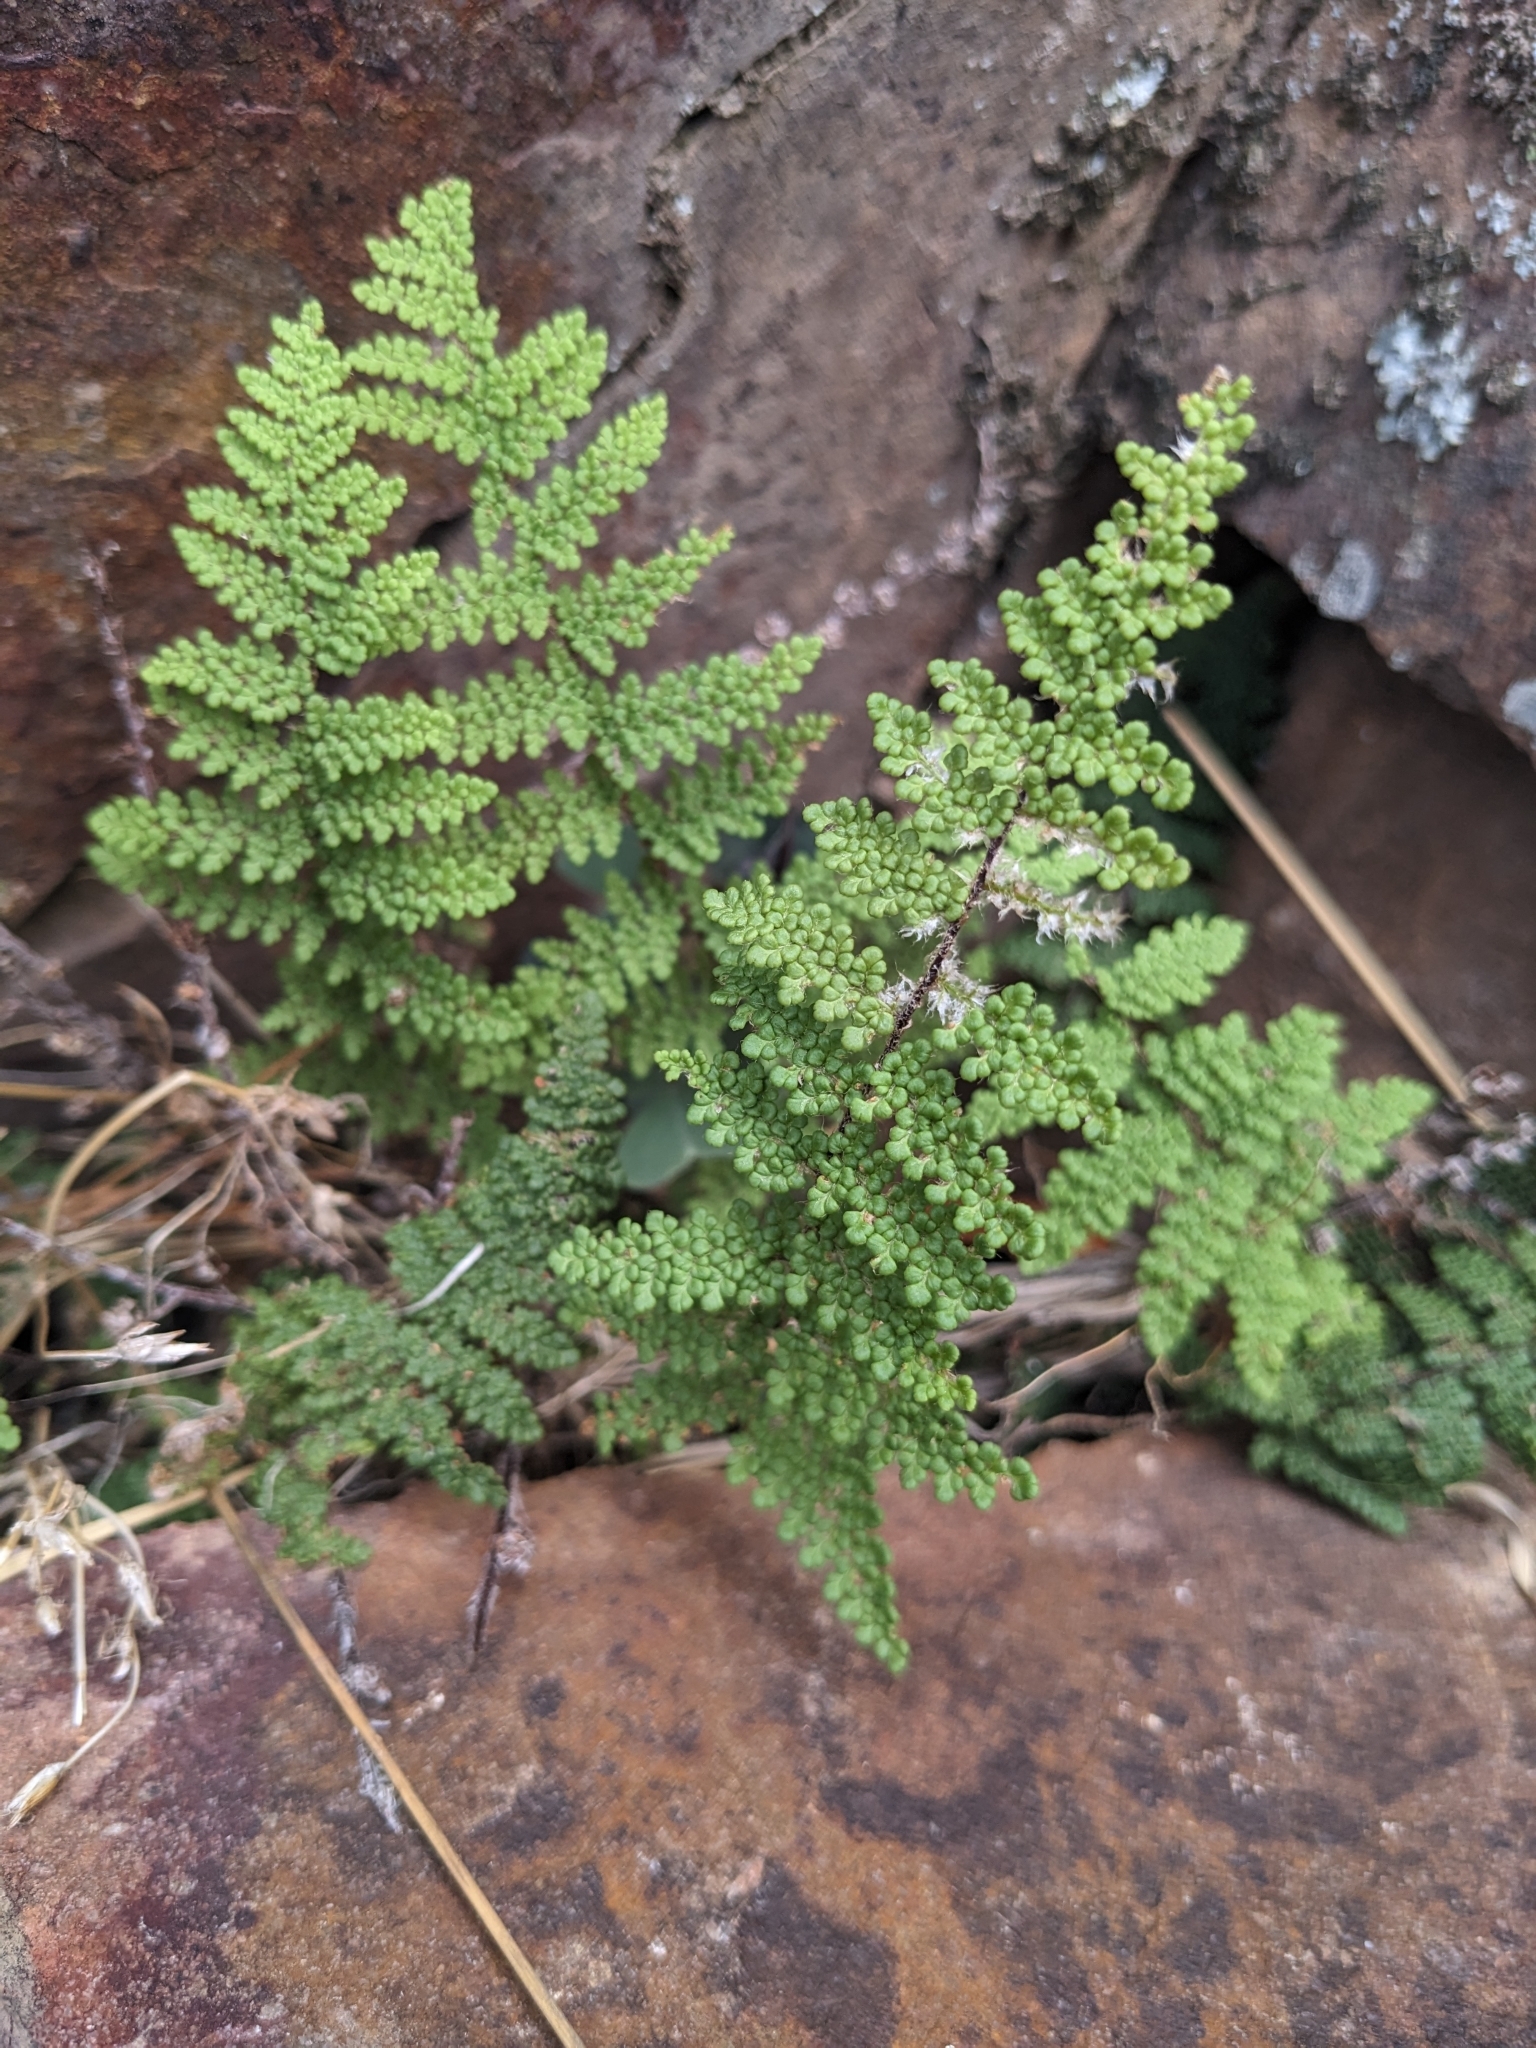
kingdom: Plantae
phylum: Tracheophyta
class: Polypodiopsida
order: Polypodiales
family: Pteridaceae
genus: Myriopteris
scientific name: Myriopteris fendleri
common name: Fendler's lip fern
